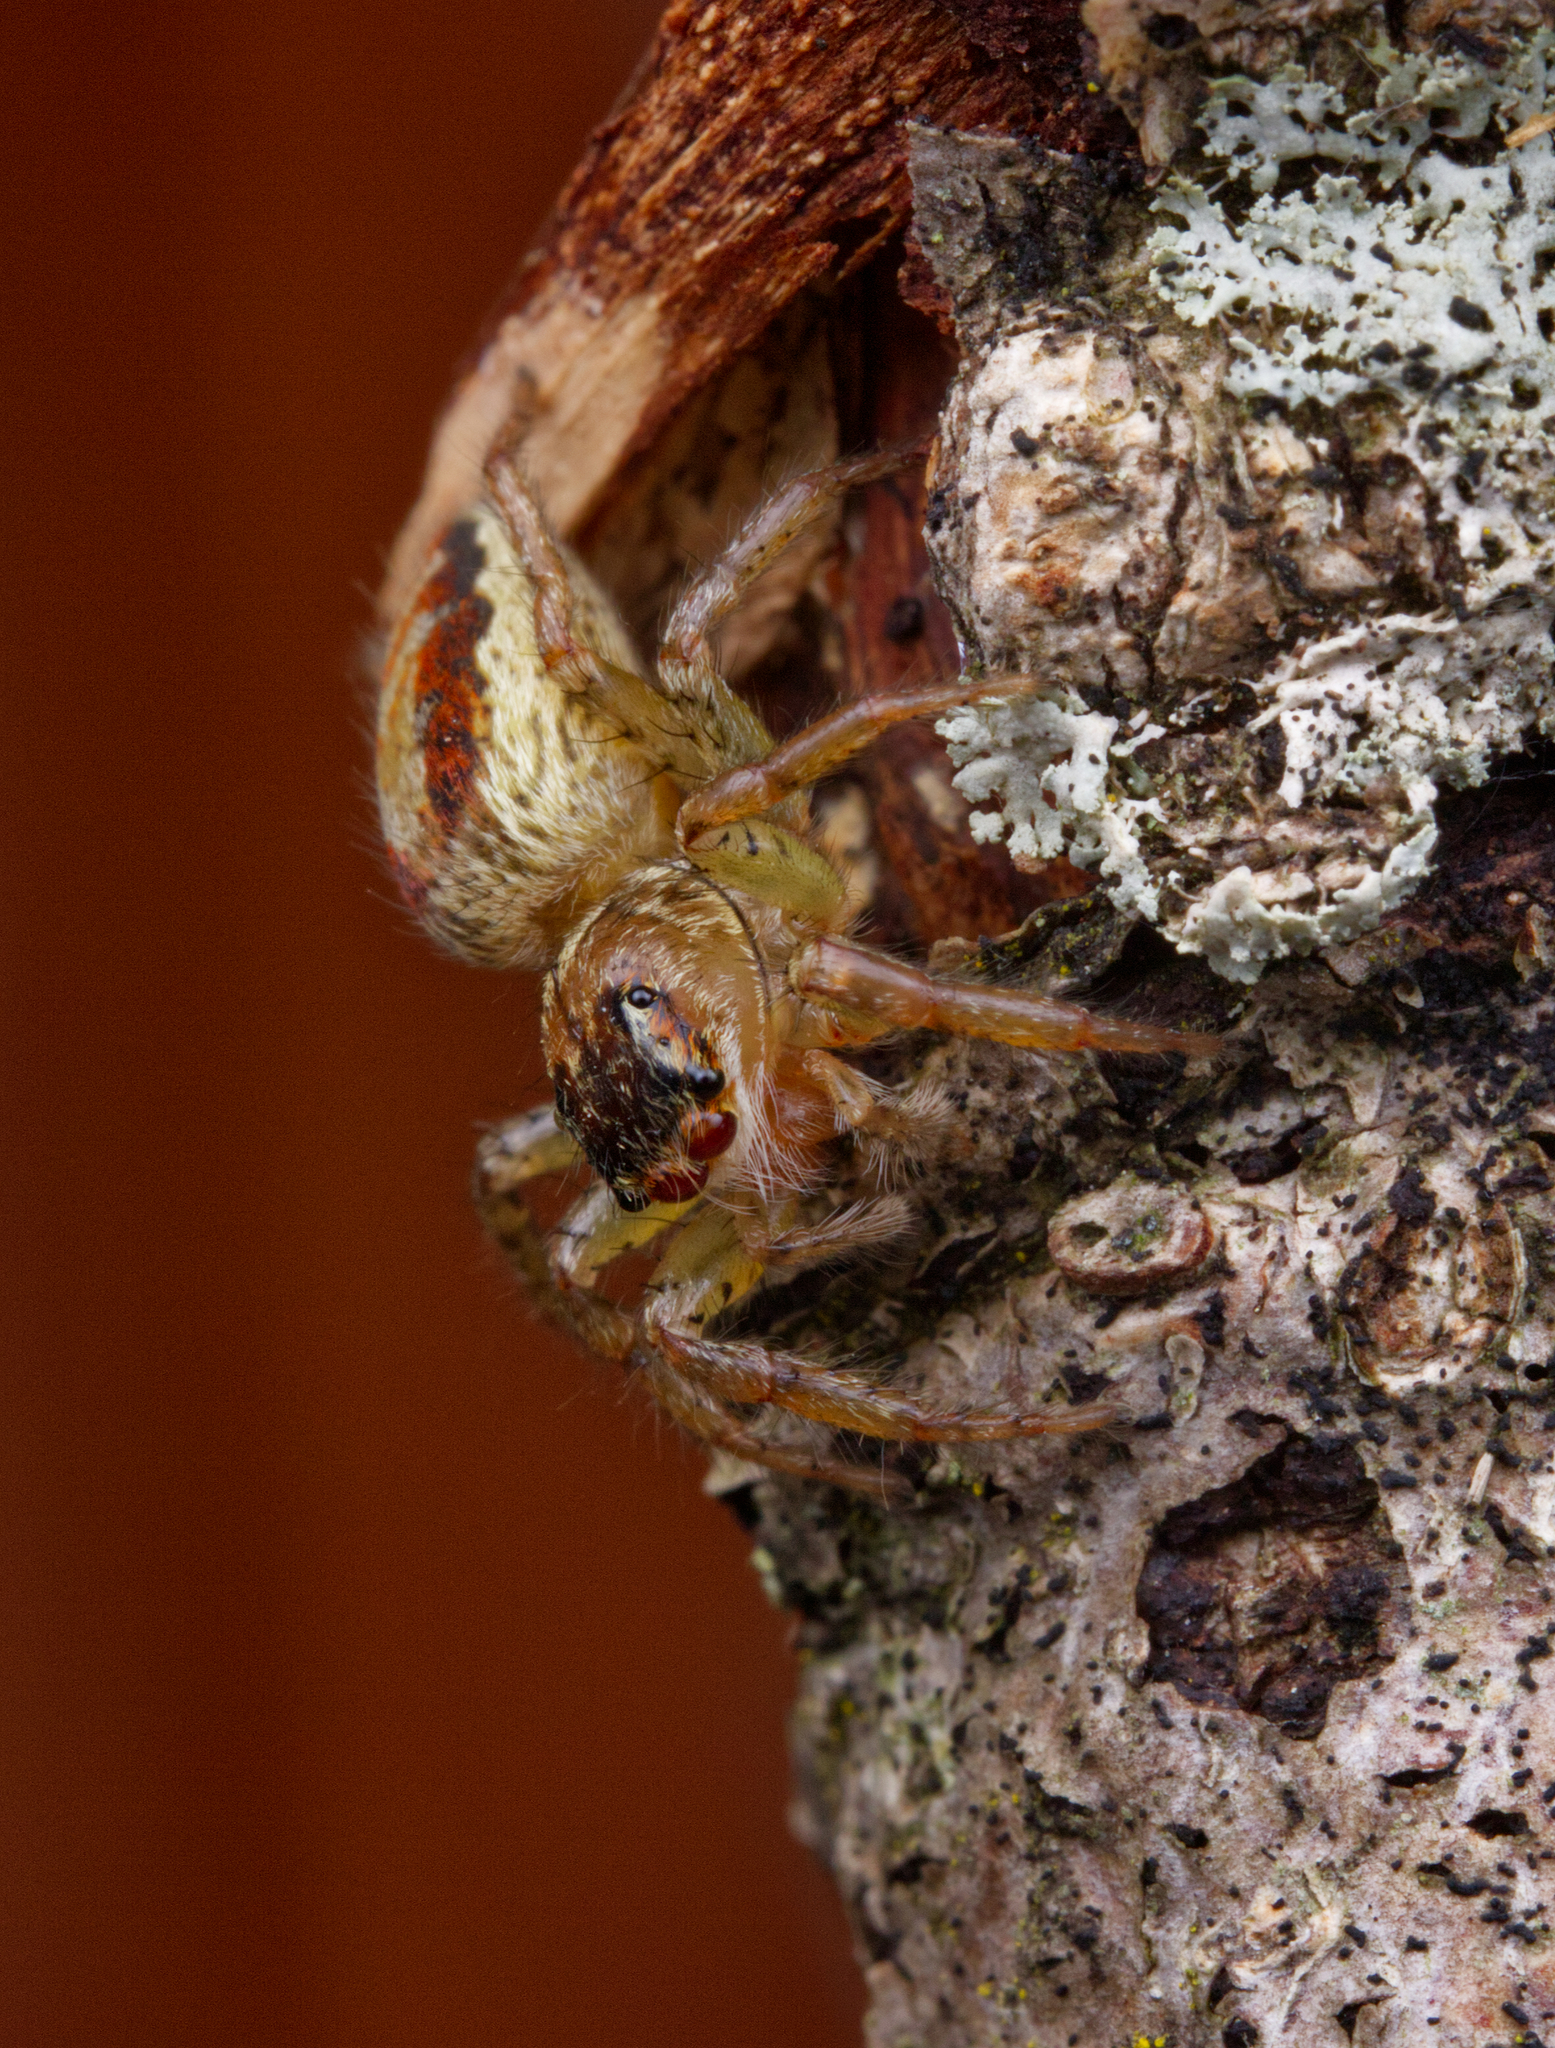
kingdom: Animalia
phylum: Arthropoda
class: Arachnida
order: Araneae
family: Salticidae
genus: Maevia
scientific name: Maevia inclemens
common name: Dimorphic jumper
